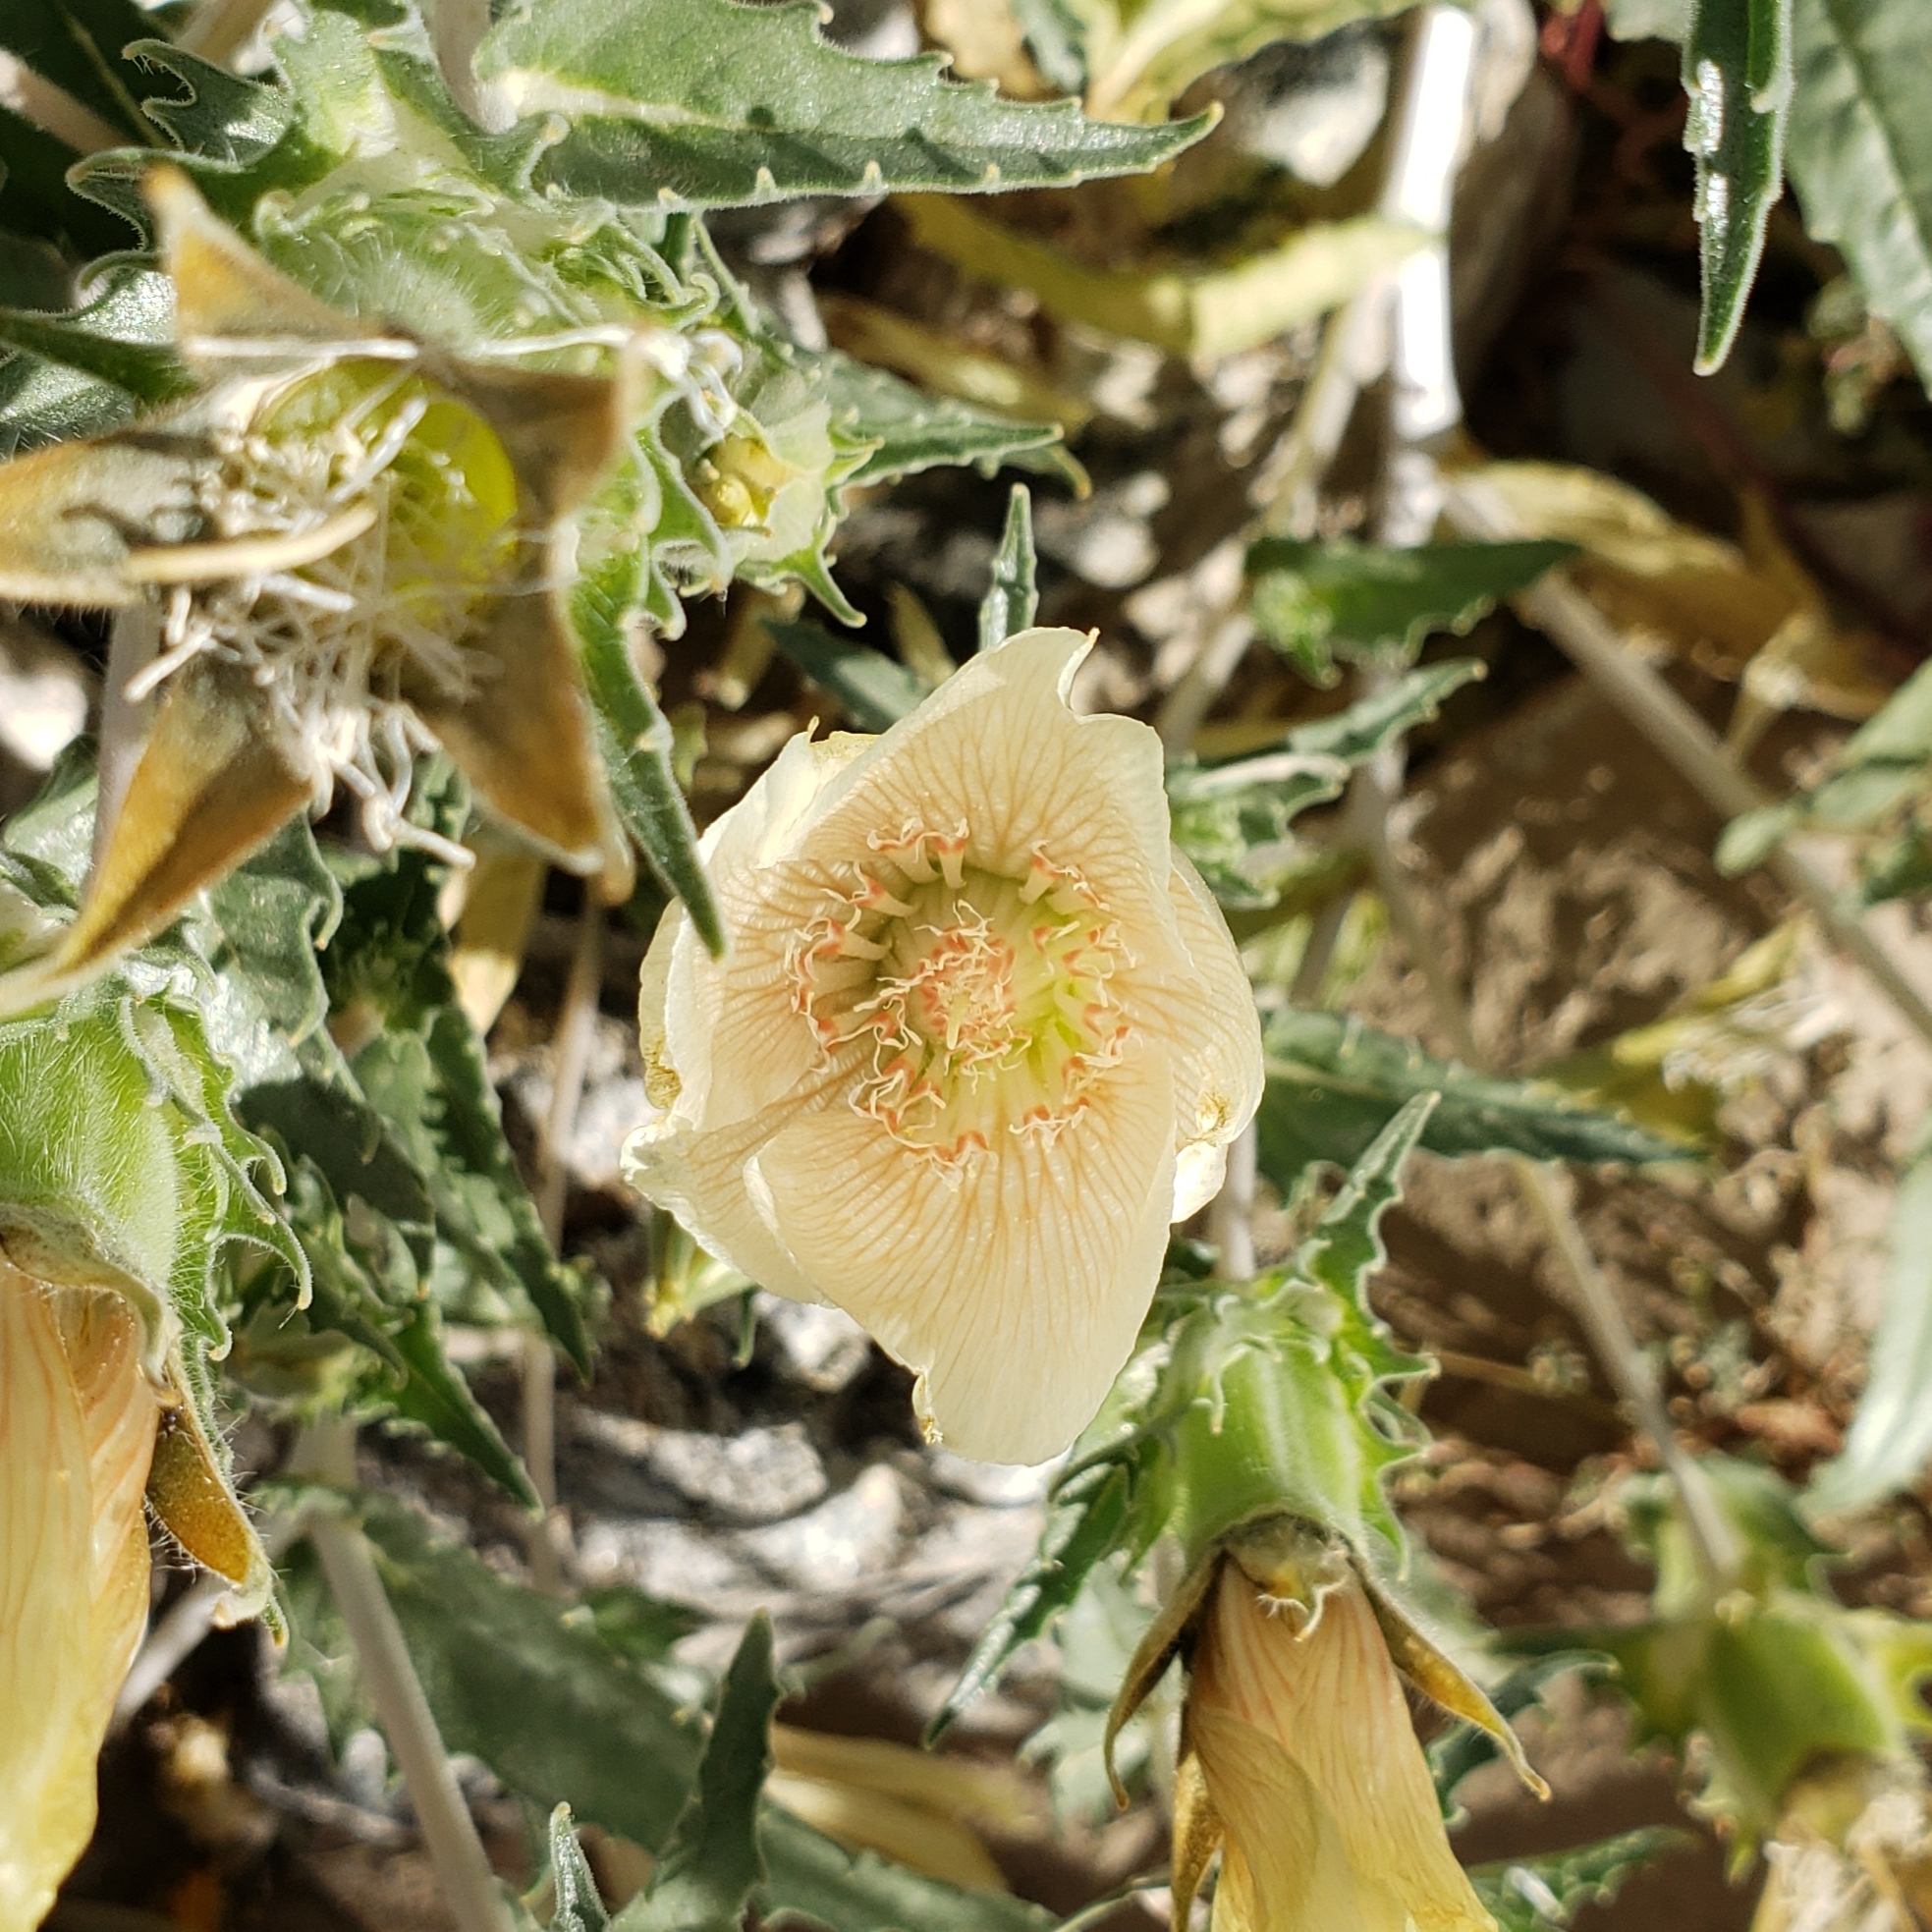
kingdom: Plantae
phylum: Tracheophyta
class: Magnoliopsida
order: Cornales
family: Loasaceae
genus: Mentzelia
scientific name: Mentzelia involucrata
